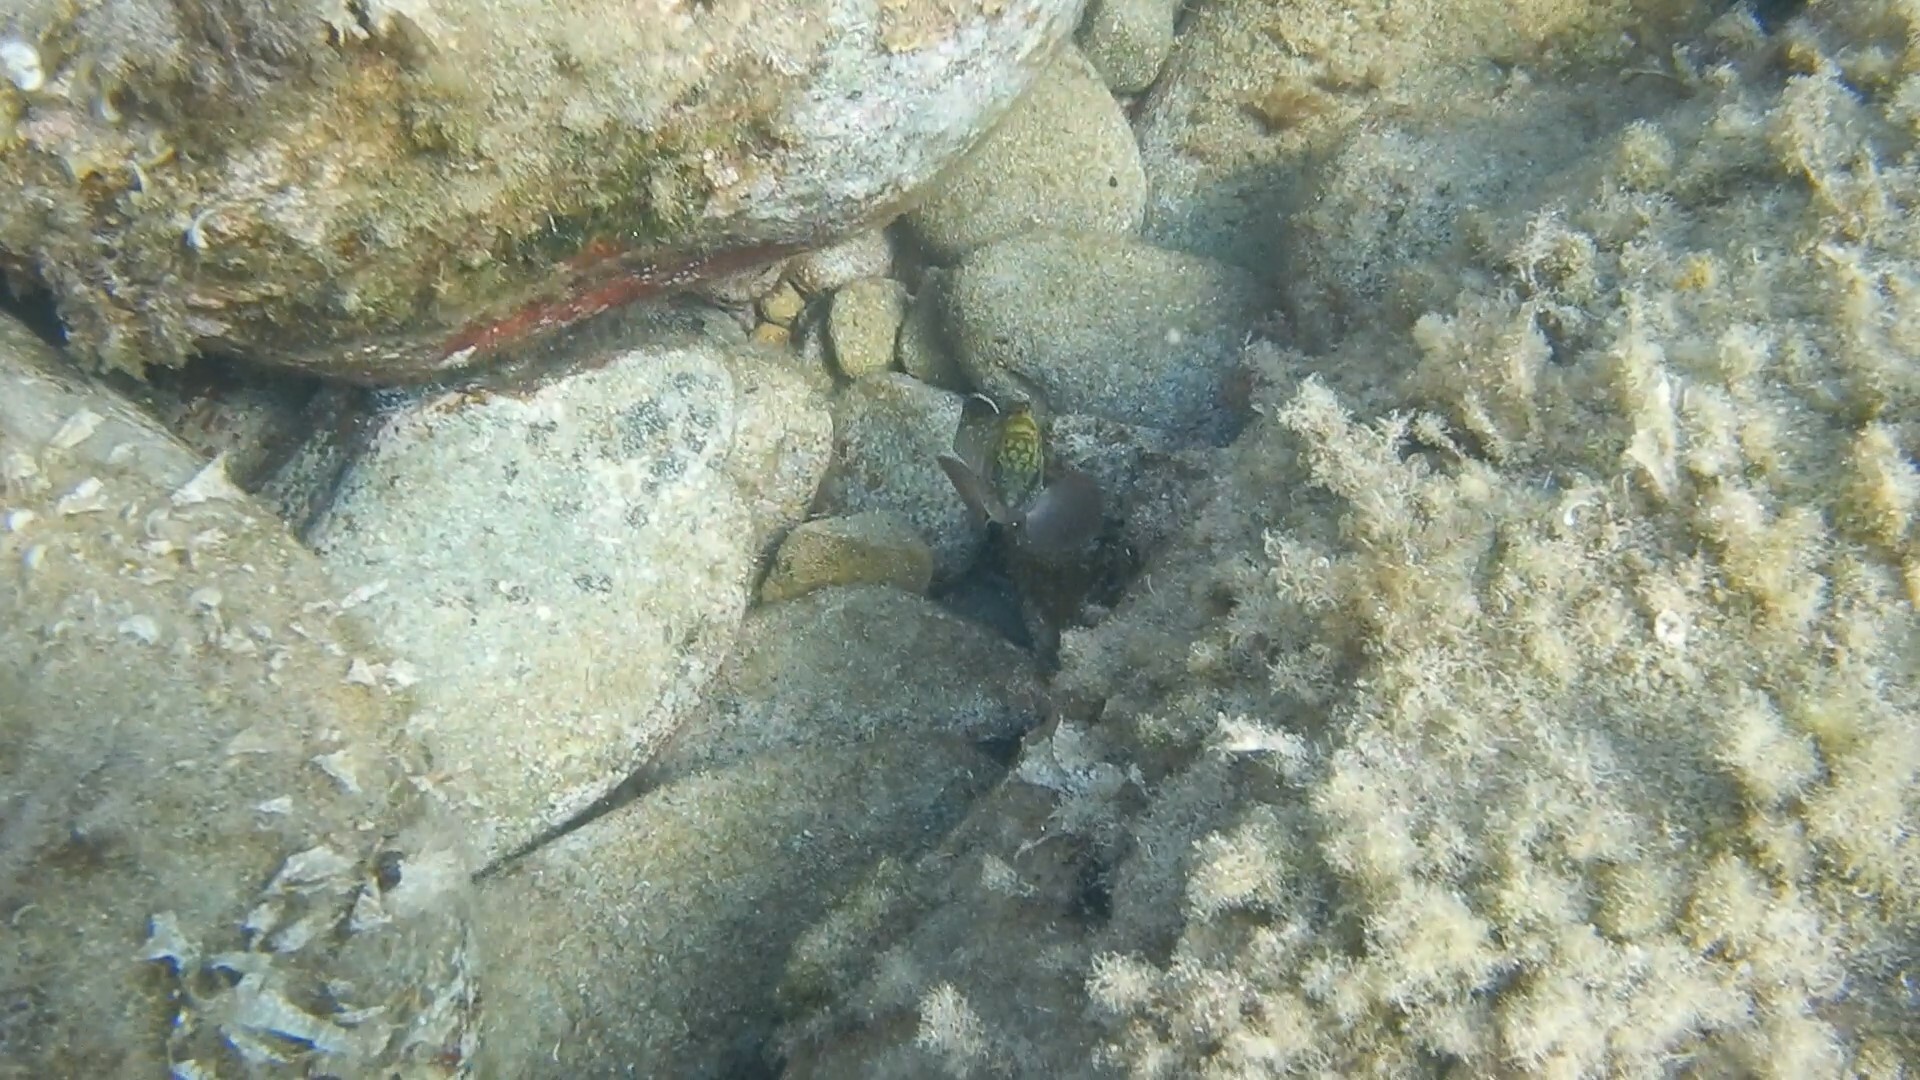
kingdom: Animalia
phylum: Chordata
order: Perciformes
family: Serranidae
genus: Epinephelus
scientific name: Epinephelus marginatus
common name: Dusky grouper
